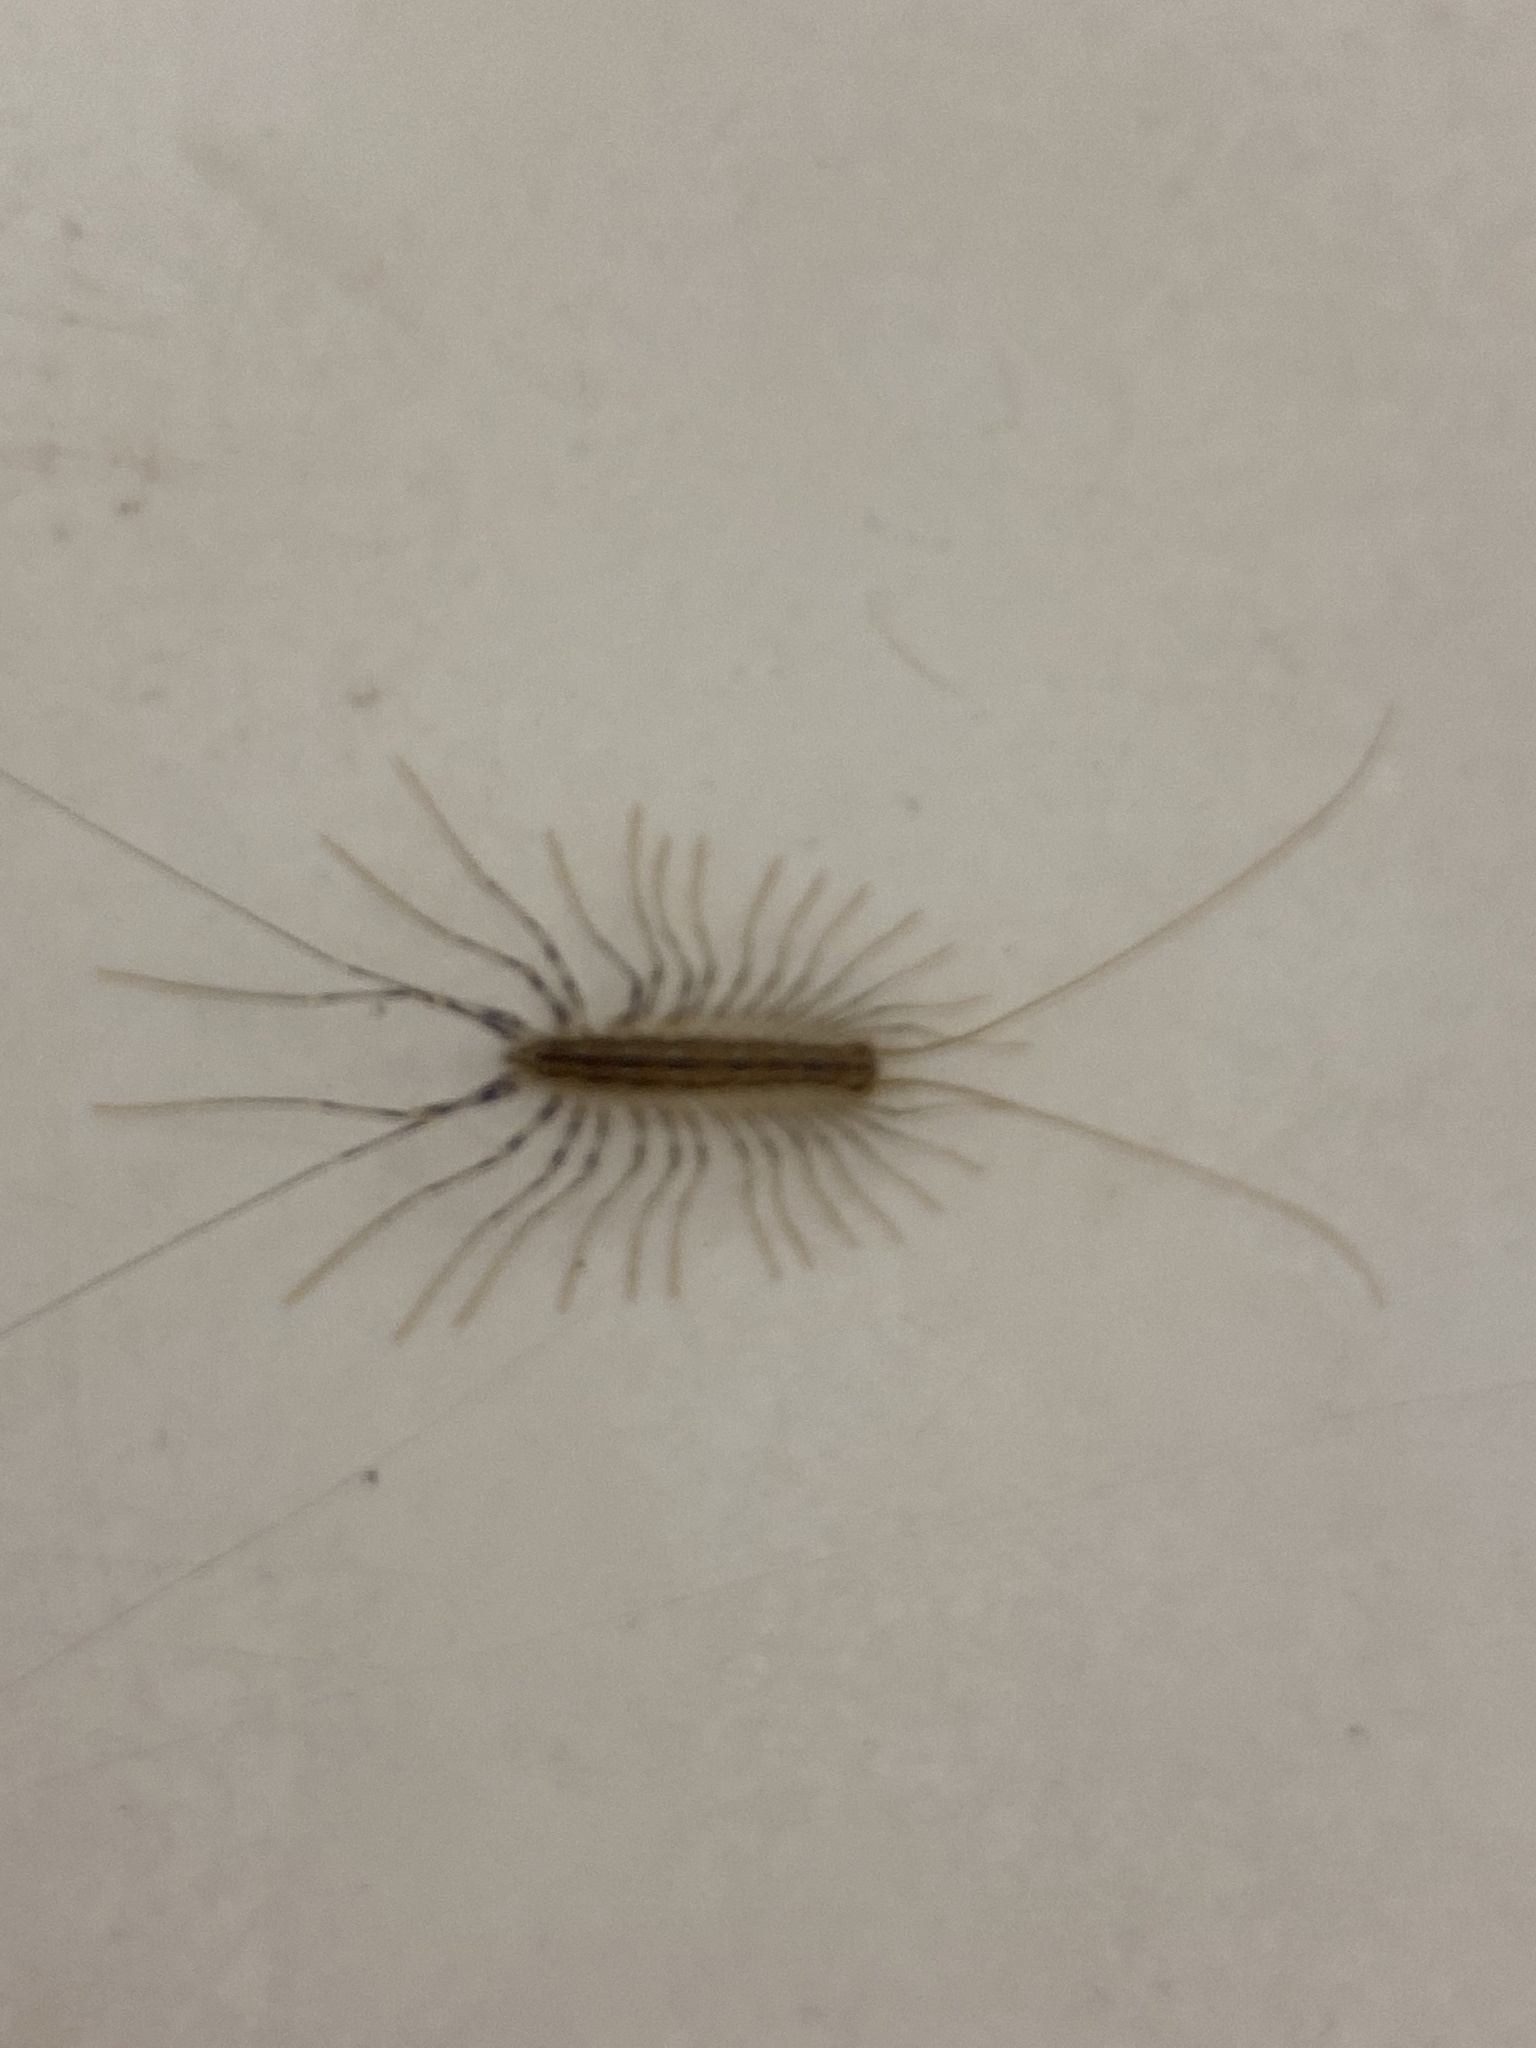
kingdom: Animalia
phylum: Arthropoda
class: Chilopoda
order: Scutigeromorpha
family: Scutigeridae
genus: Scutigera
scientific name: Scutigera coleoptrata
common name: House centipede
